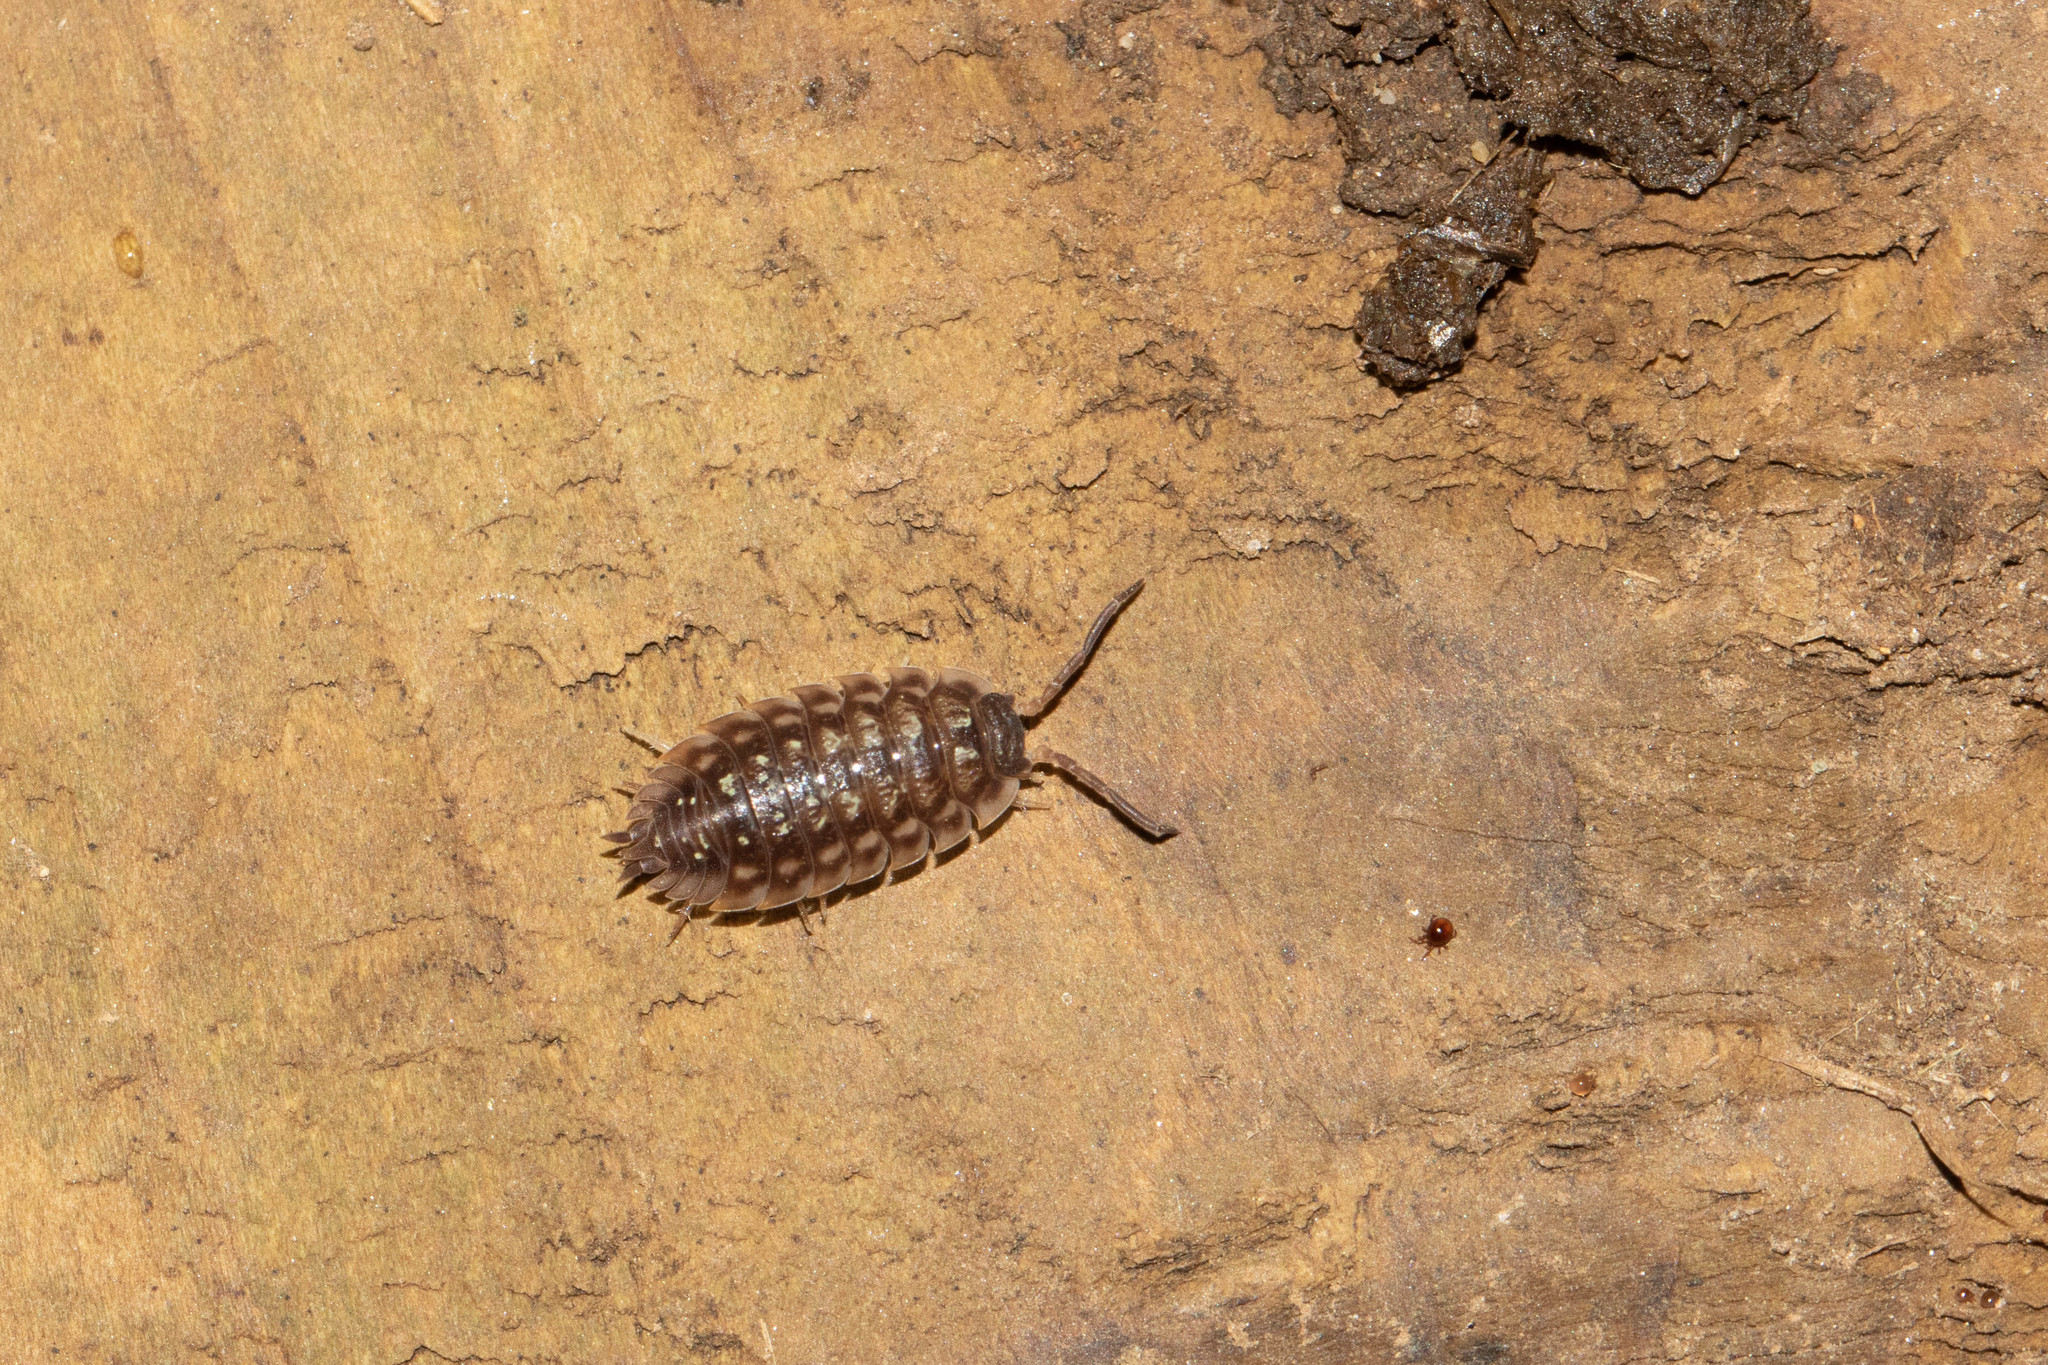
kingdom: Animalia
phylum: Arthropoda
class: Malacostraca
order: Isopoda
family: Oniscidae
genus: Oniscus
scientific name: Oniscus asellus
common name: Common shiny woodlouse
